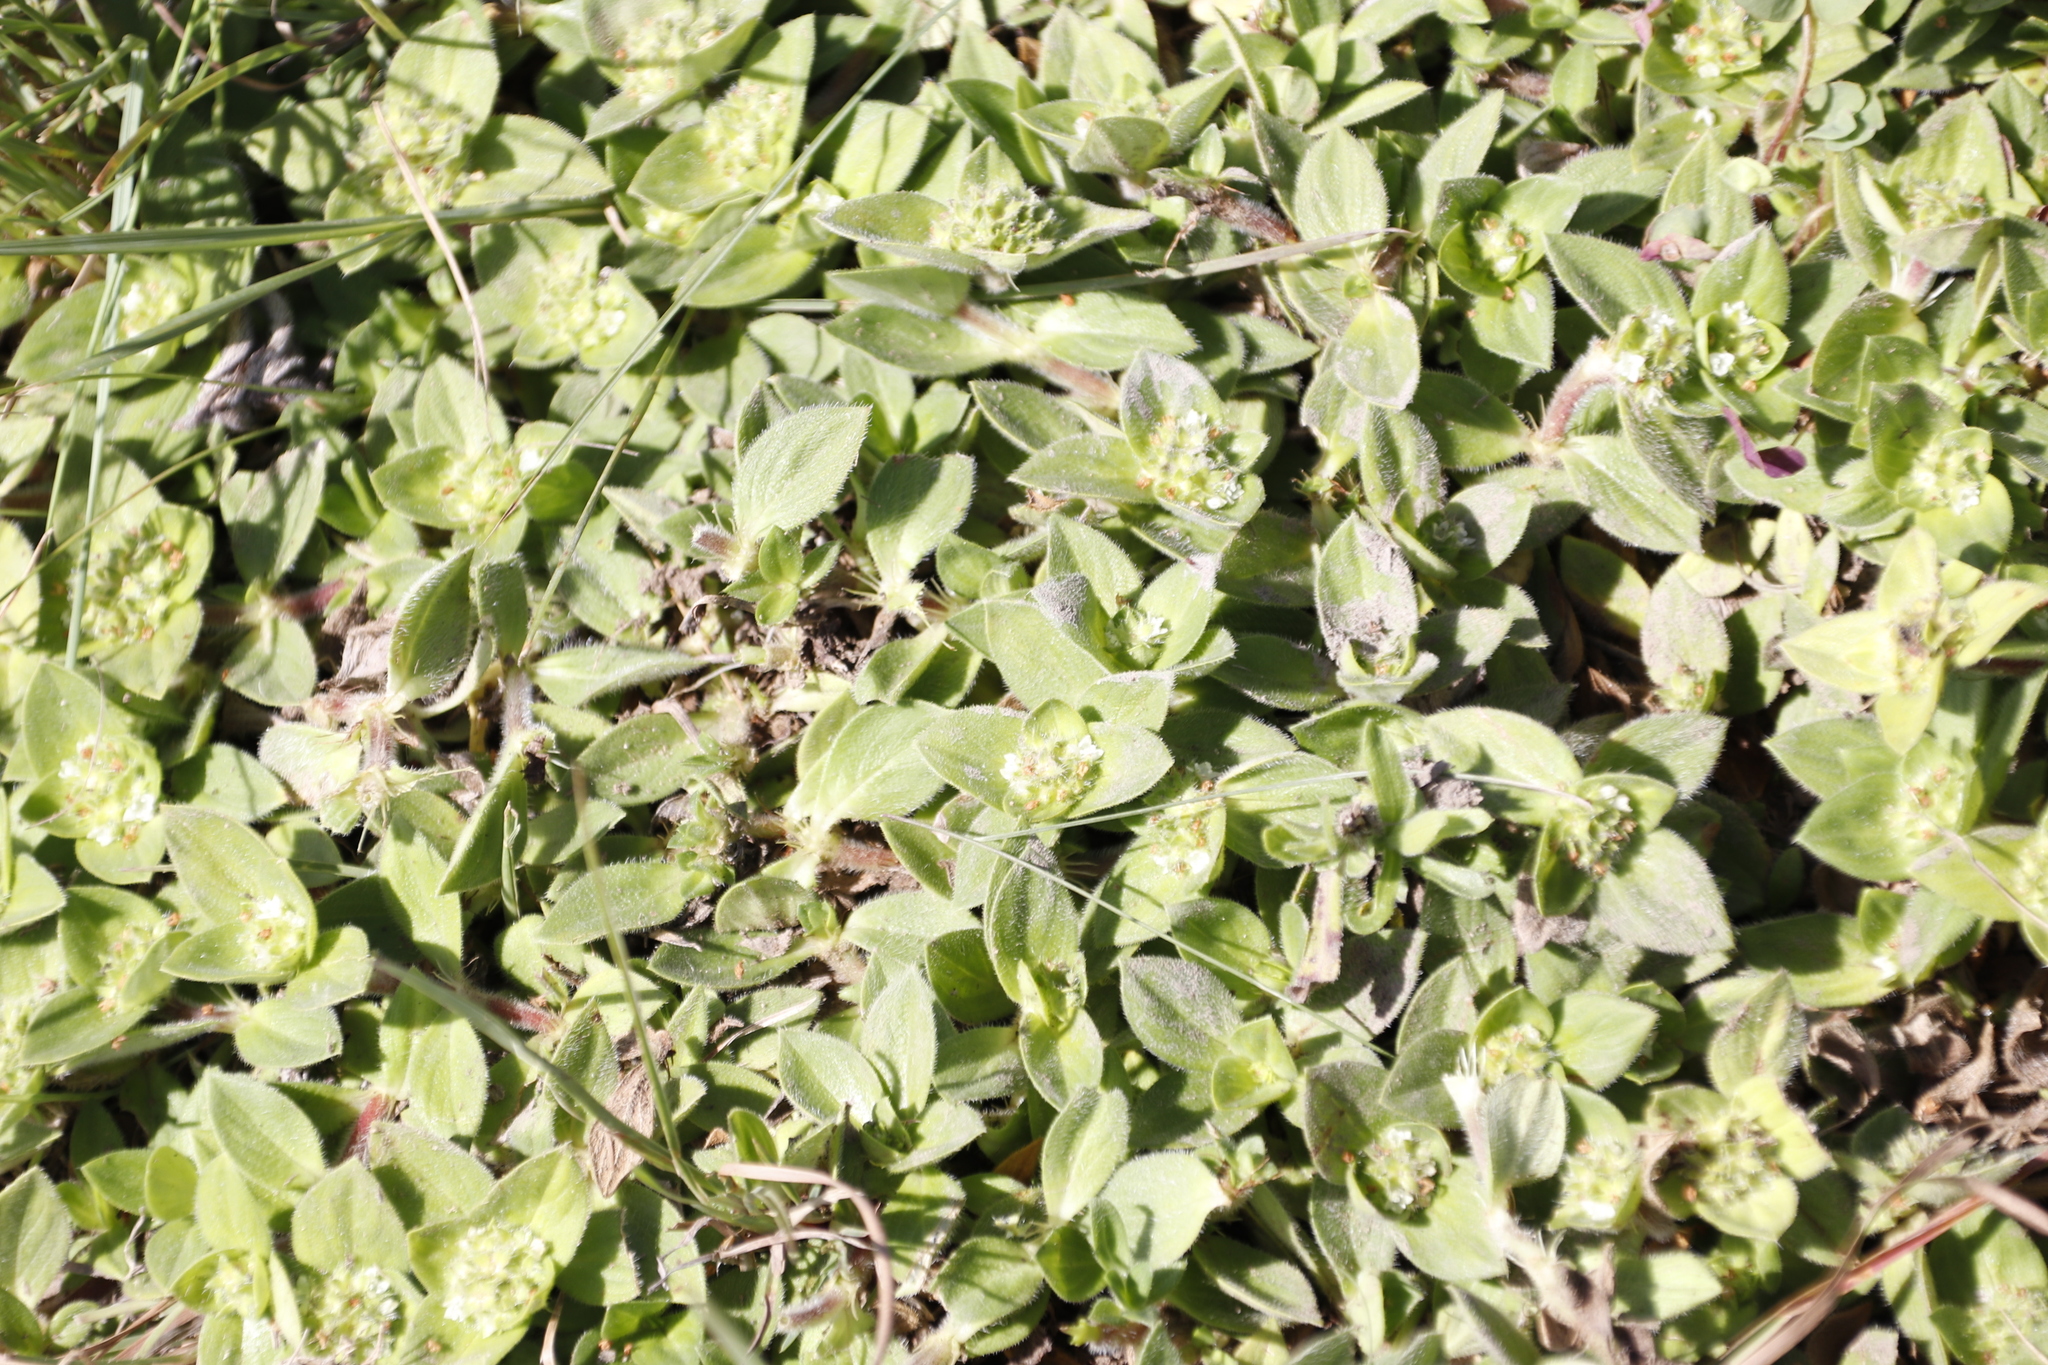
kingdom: Plantae
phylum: Tracheophyta
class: Magnoliopsida
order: Gentianales
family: Rubiaceae
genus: Richardia
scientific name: Richardia brasiliensis
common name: Tropical mexican clover
